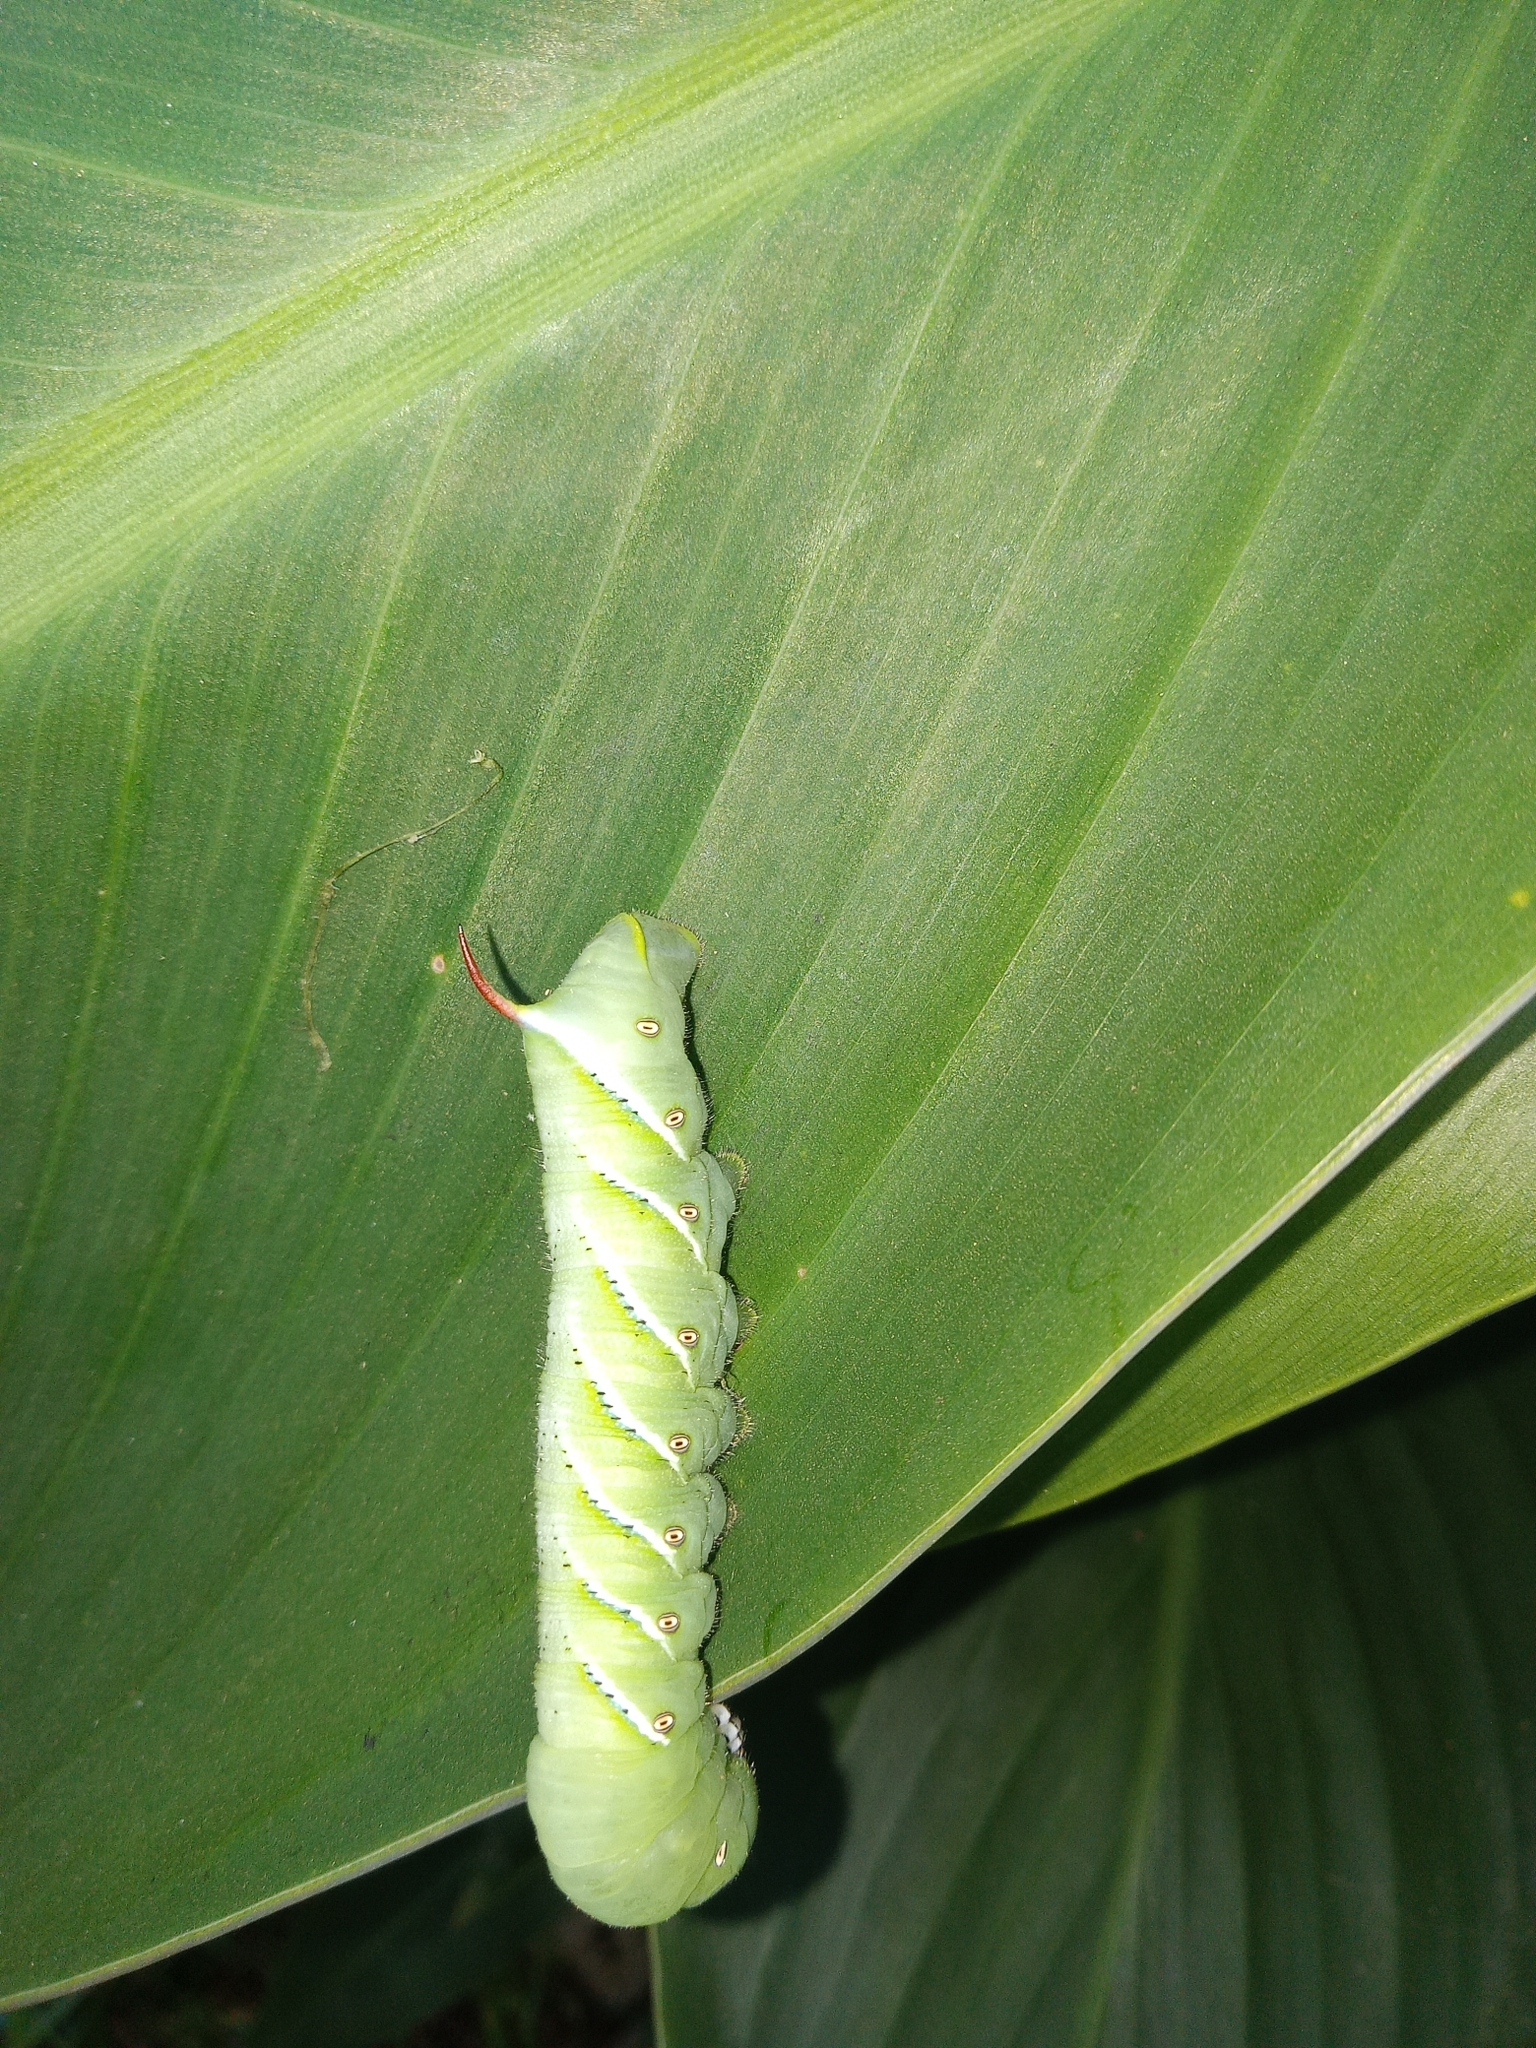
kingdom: Animalia
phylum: Arthropoda
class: Insecta
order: Lepidoptera
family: Sphingidae
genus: Manduca
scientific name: Manduca sexta
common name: Carolina sphinx
